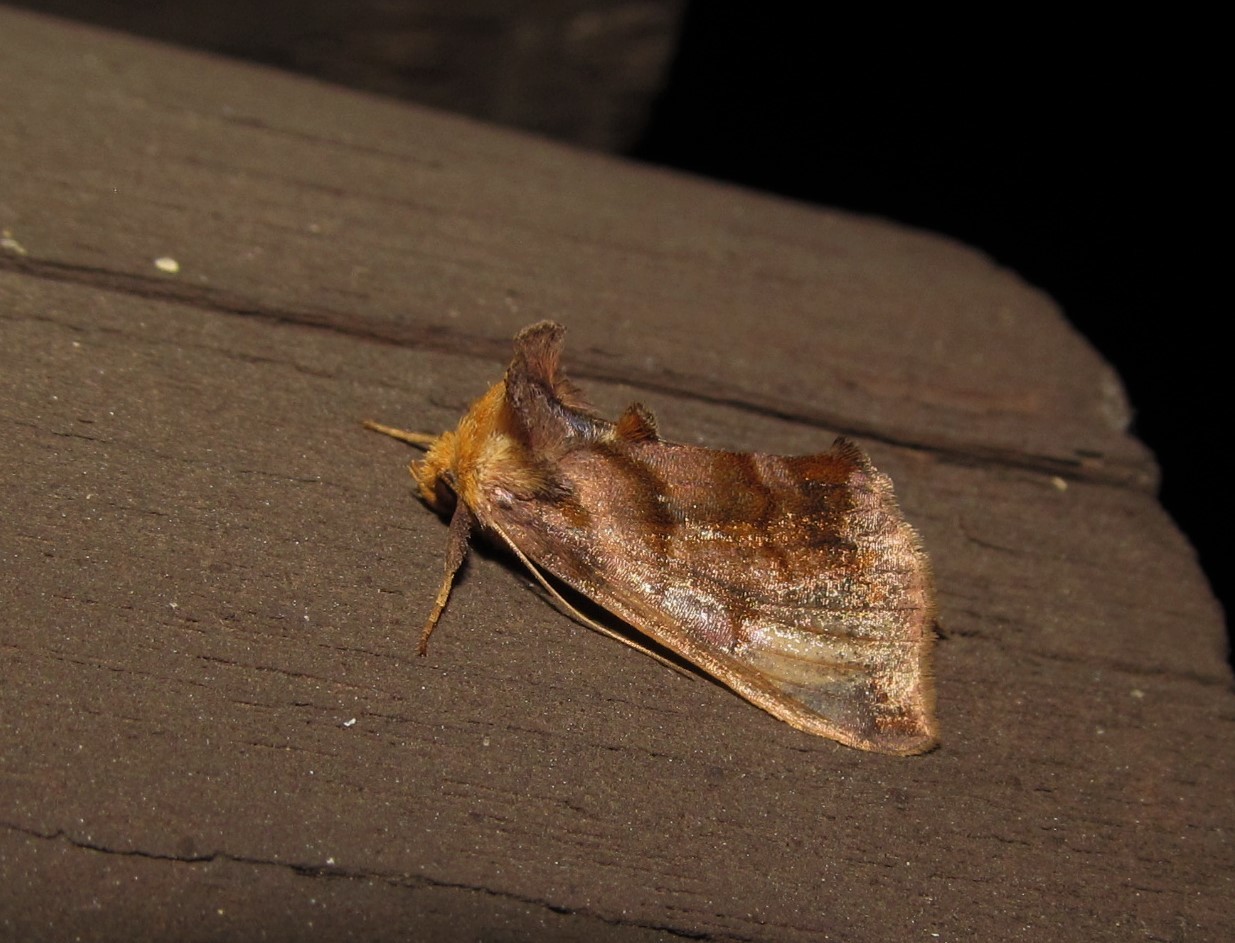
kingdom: Animalia
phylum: Arthropoda
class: Insecta
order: Lepidoptera
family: Noctuidae
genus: Allagrapha
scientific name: Allagrapha aerea
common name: Unspotted looper moth
